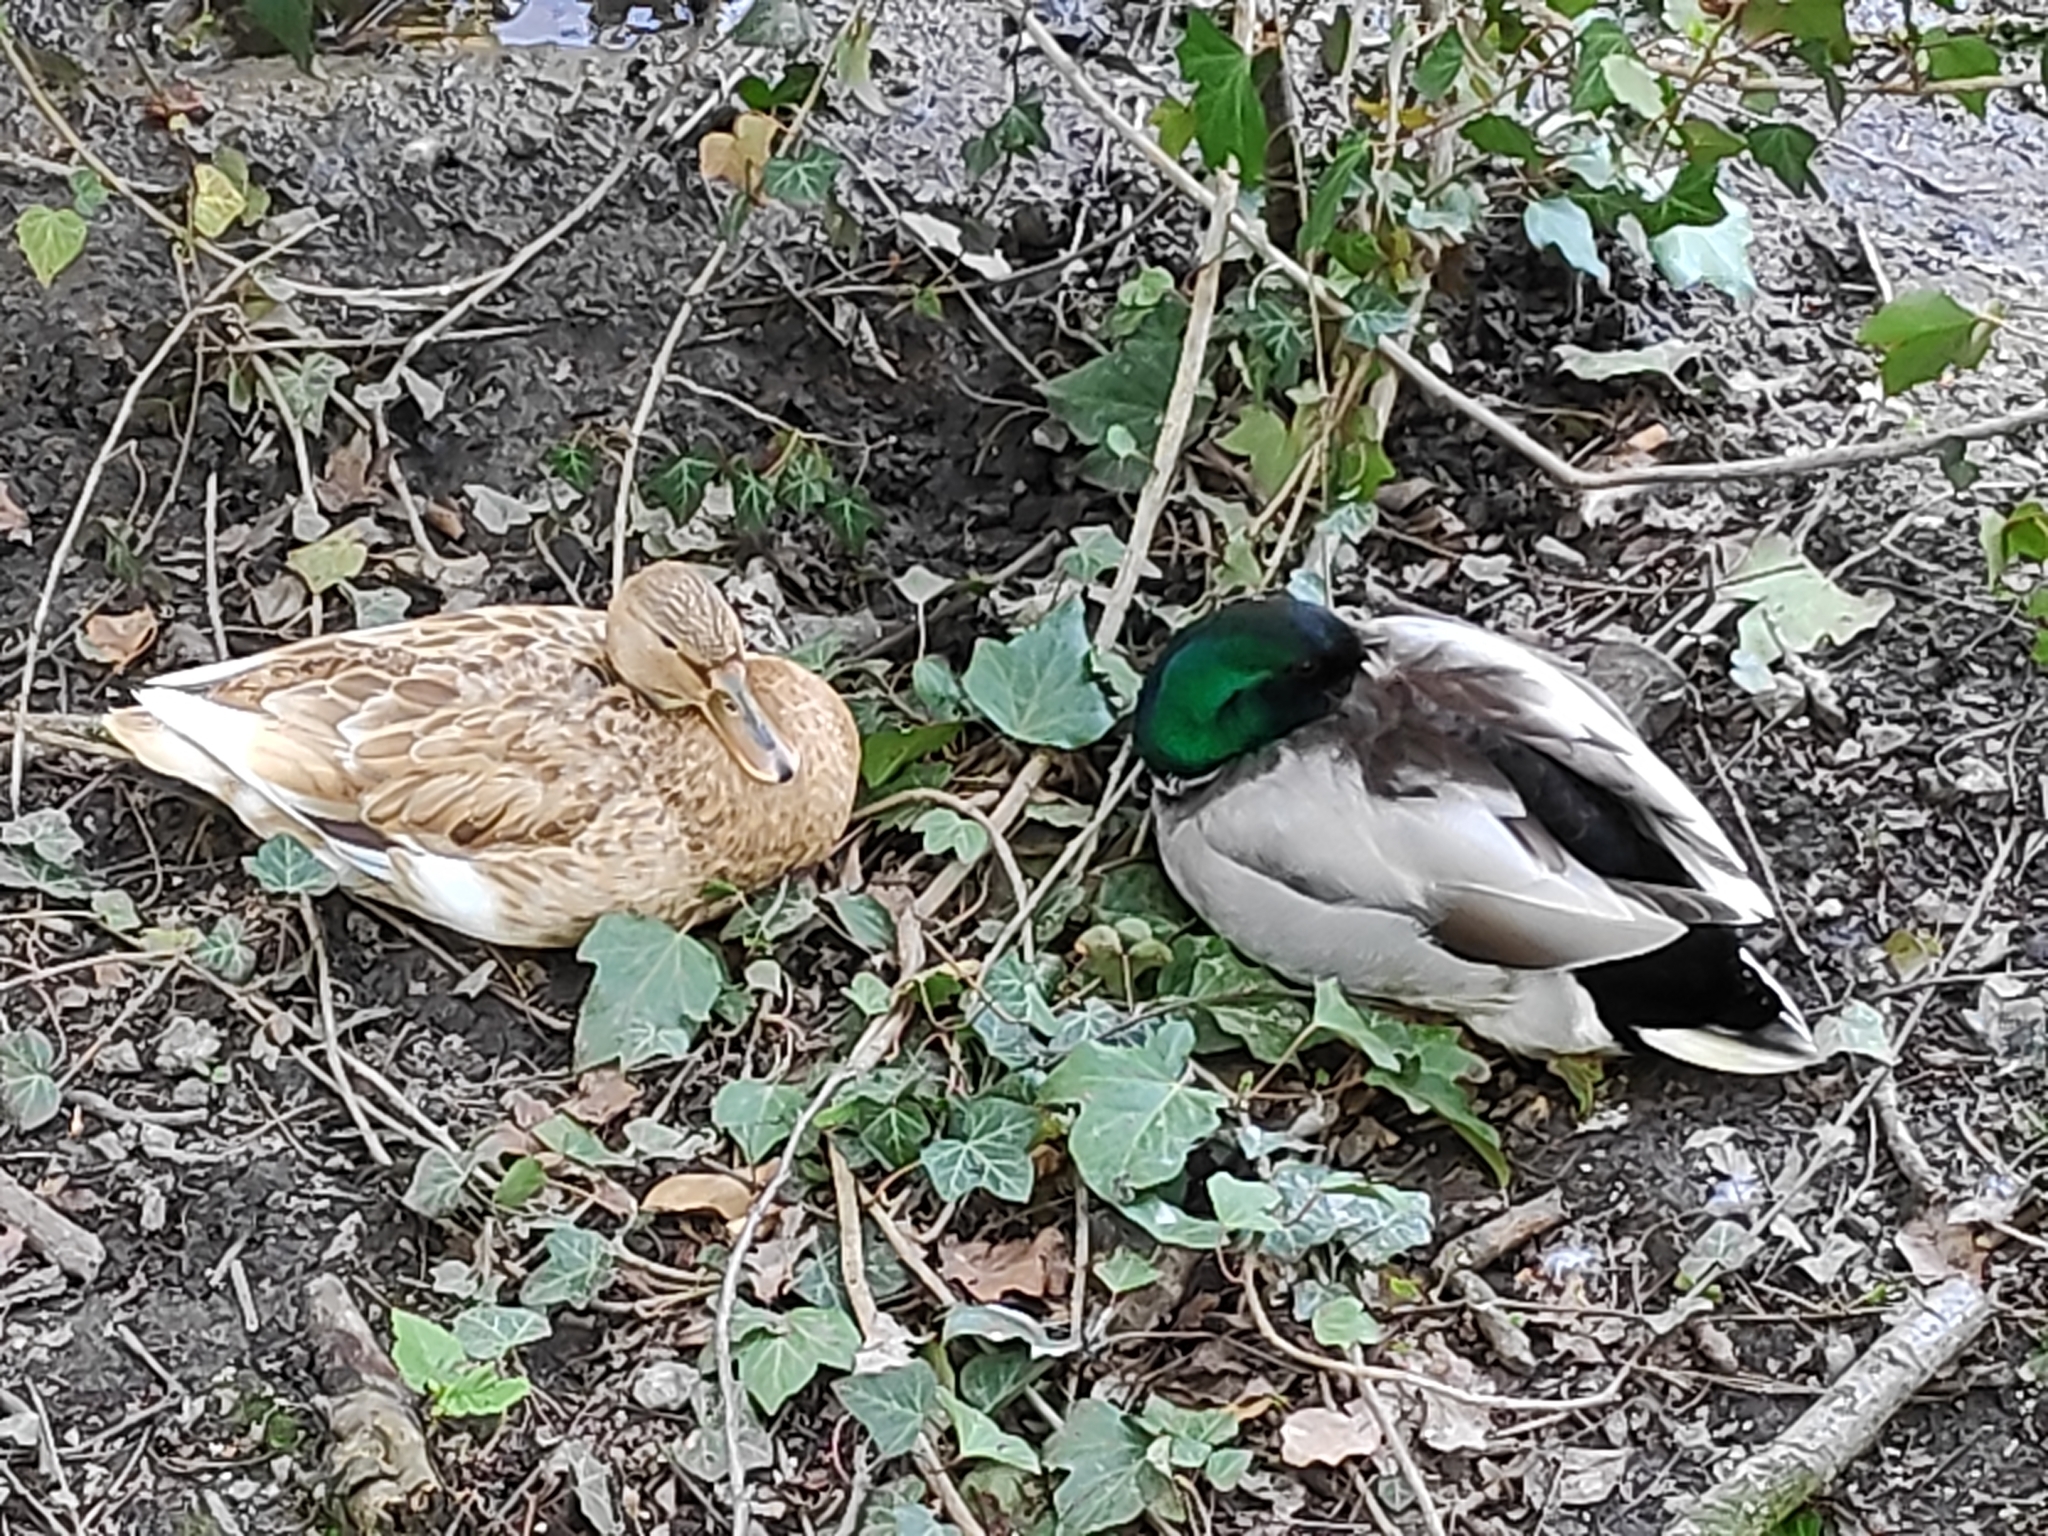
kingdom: Animalia
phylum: Chordata
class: Aves
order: Anseriformes
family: Anatidae
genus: Anas
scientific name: Anas platyrhynchos
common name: Mallard
